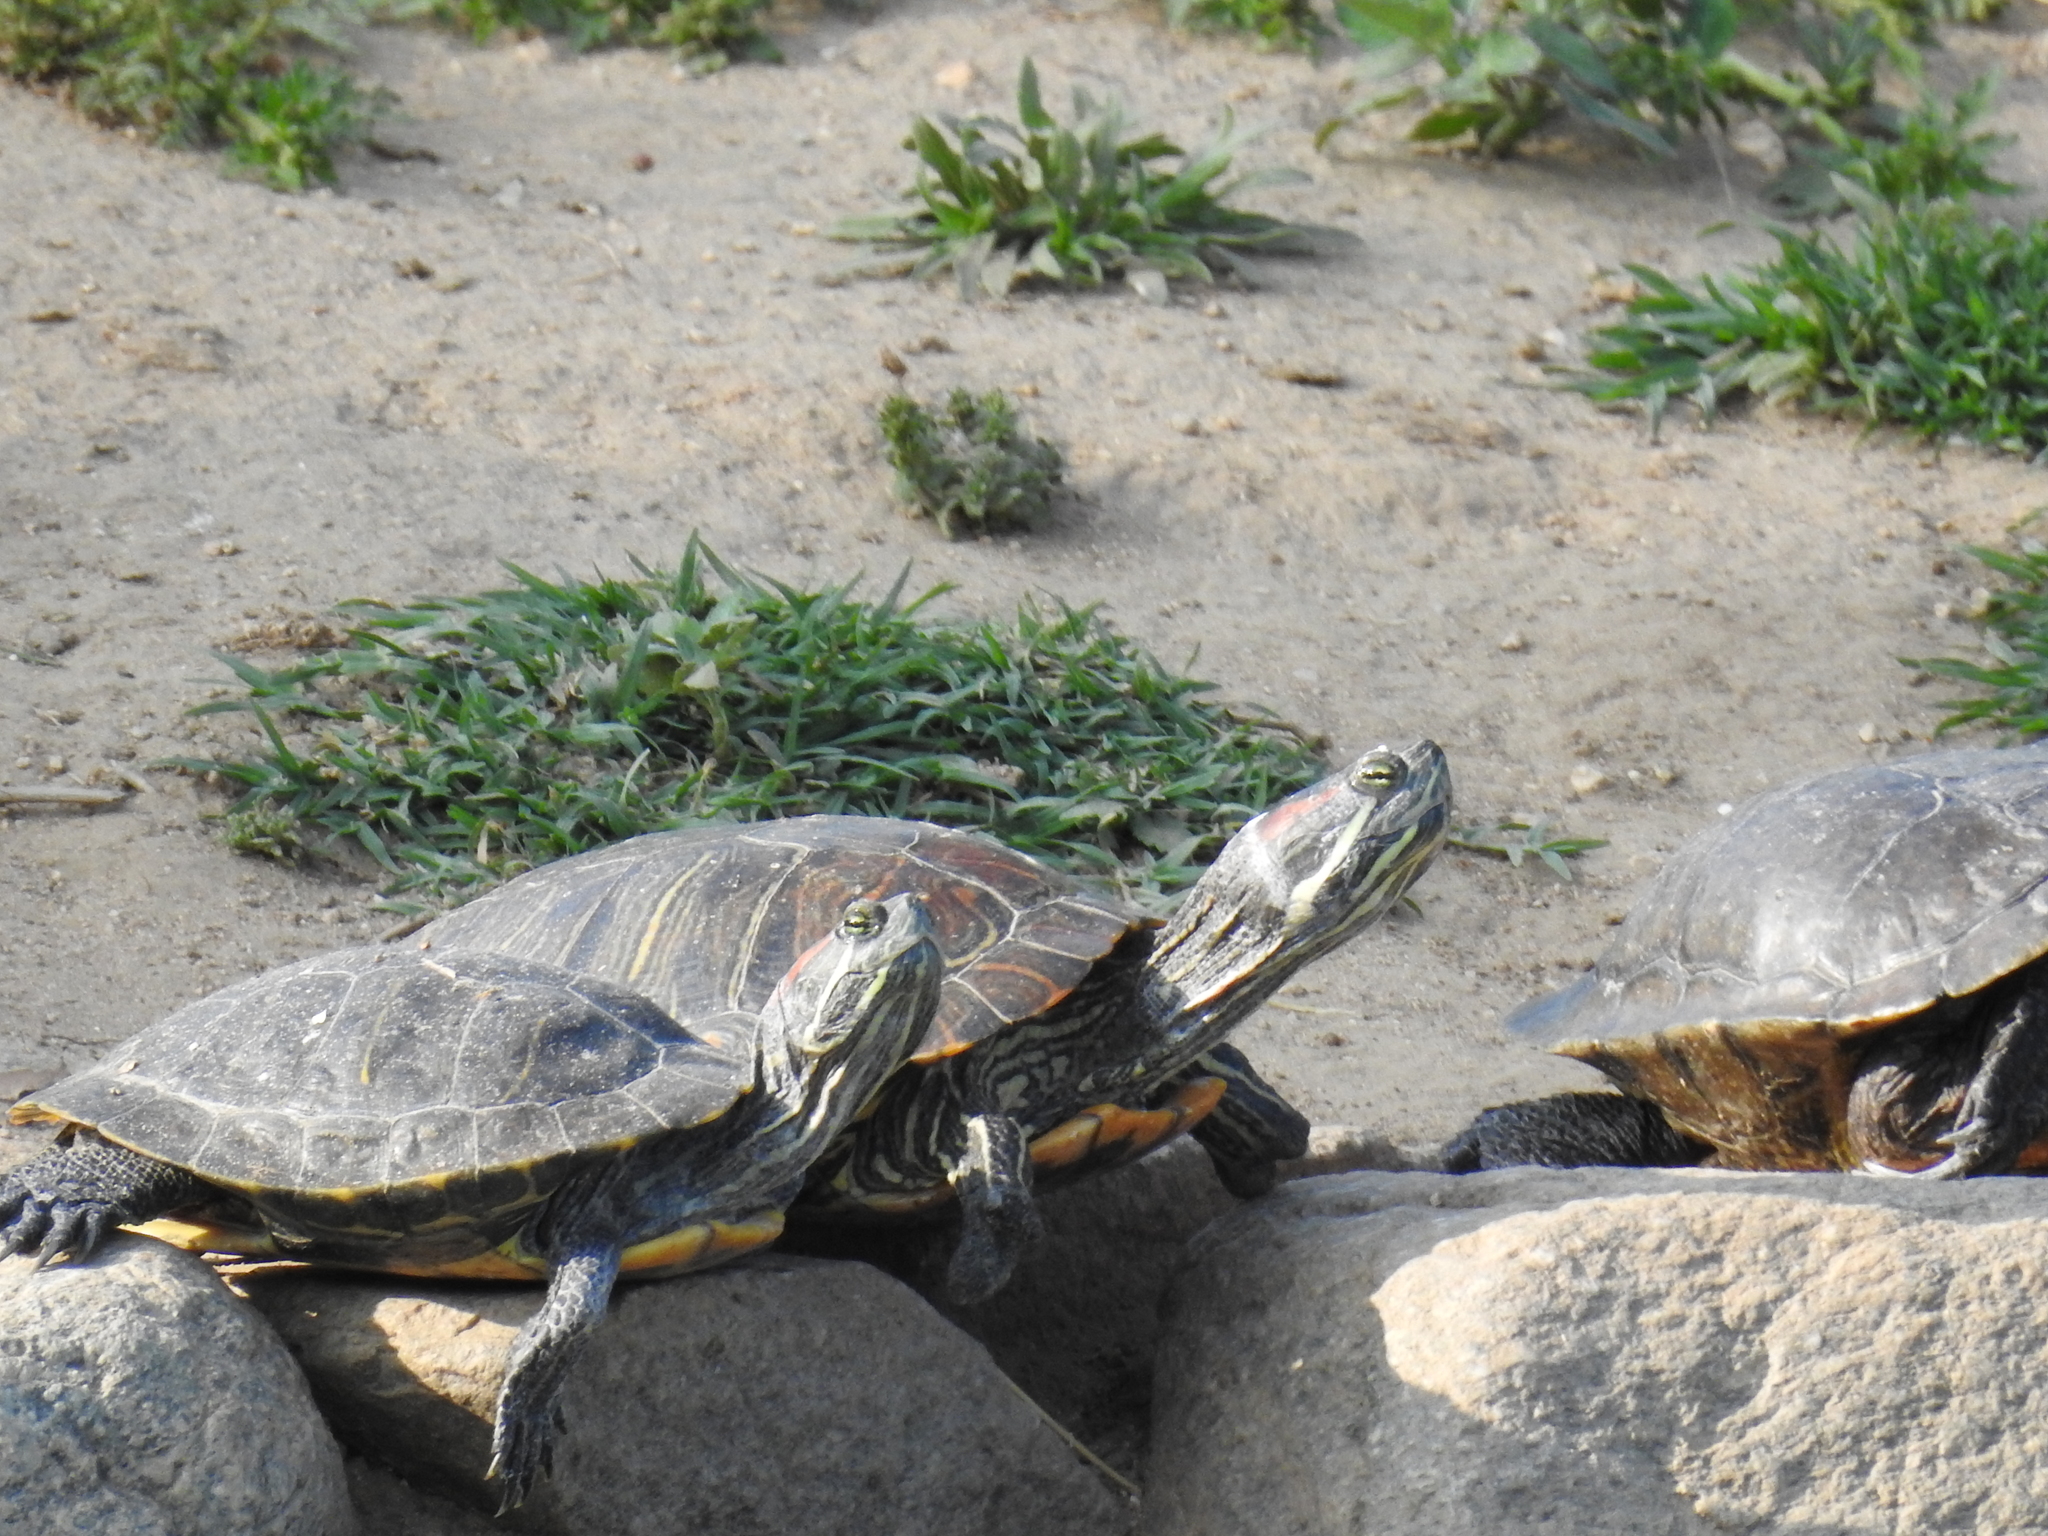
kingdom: Animalia
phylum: Chordata
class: Testudines
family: Emydidae
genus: Trachemys
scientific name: Trachemys scripta
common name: Slider
